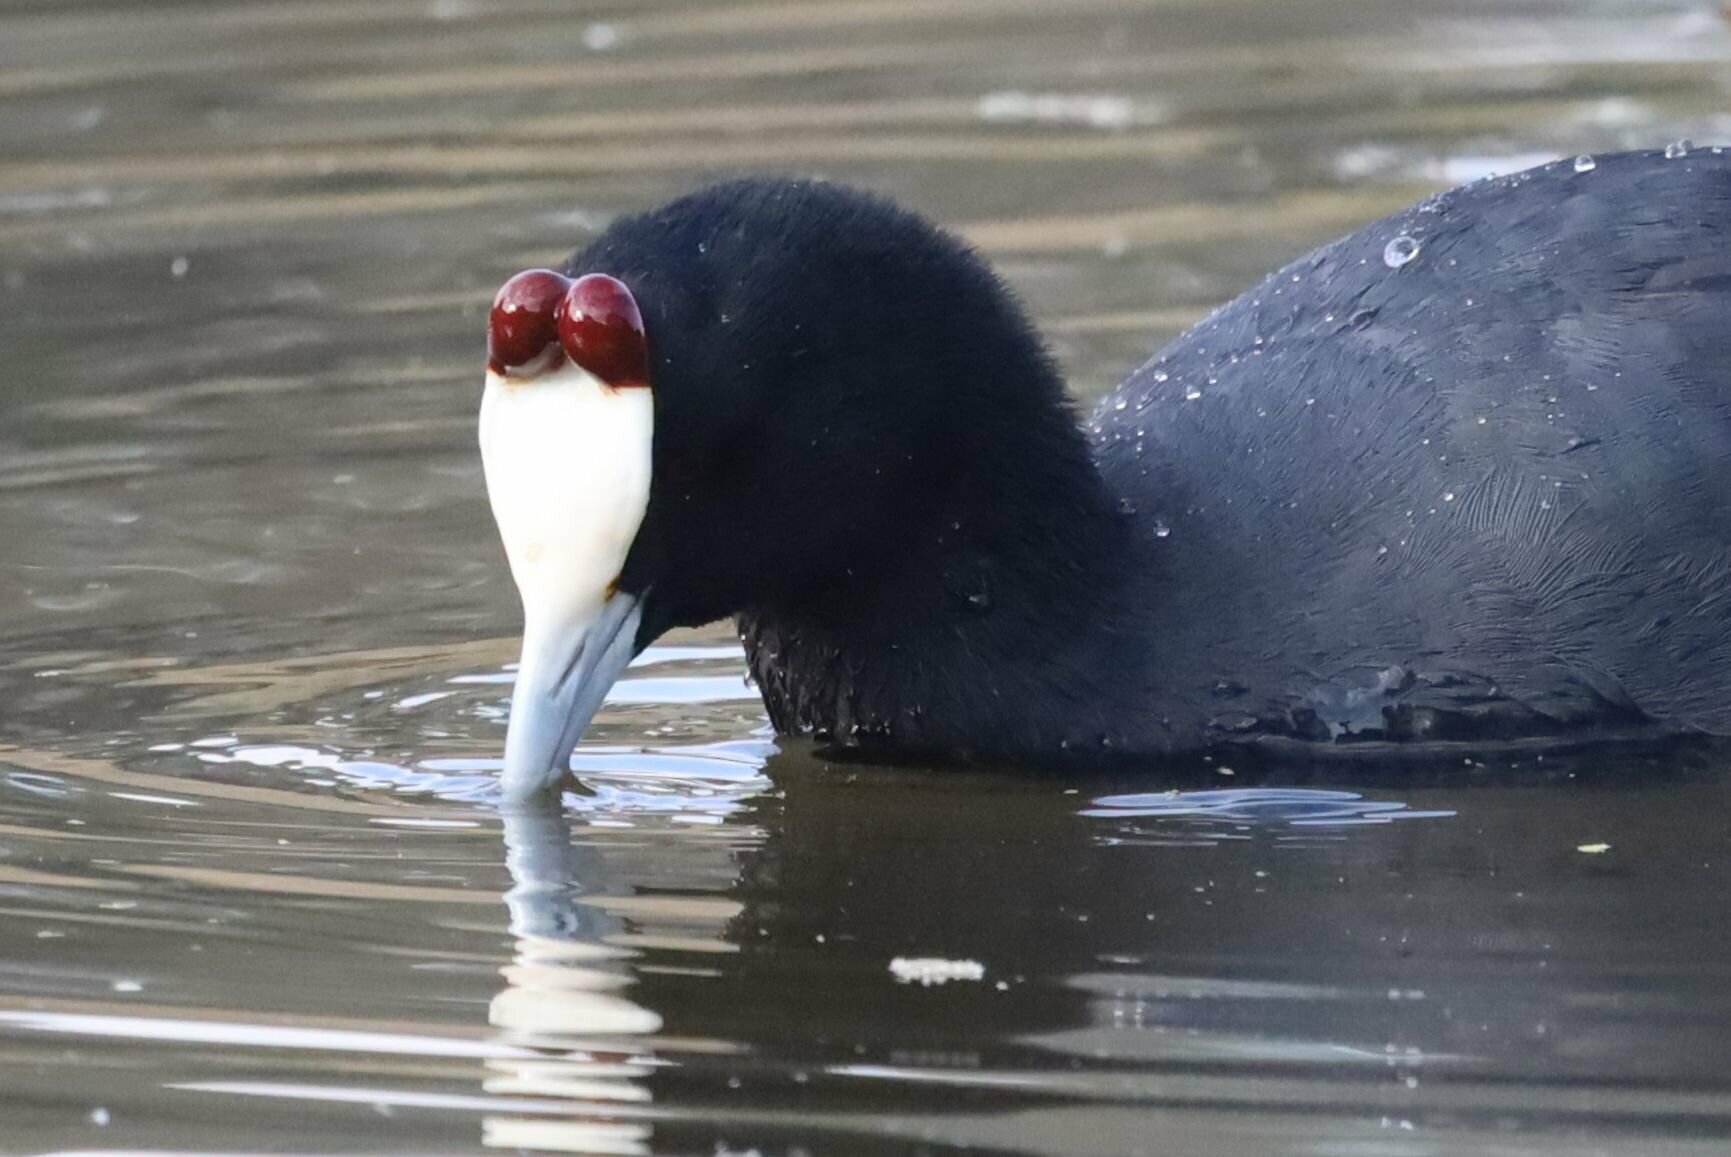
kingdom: Animalia
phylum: Chordata
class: Aves
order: Gruiformes
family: Rallidae
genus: Fulica
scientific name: Fulica cristata
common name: Red-knobbed coot
